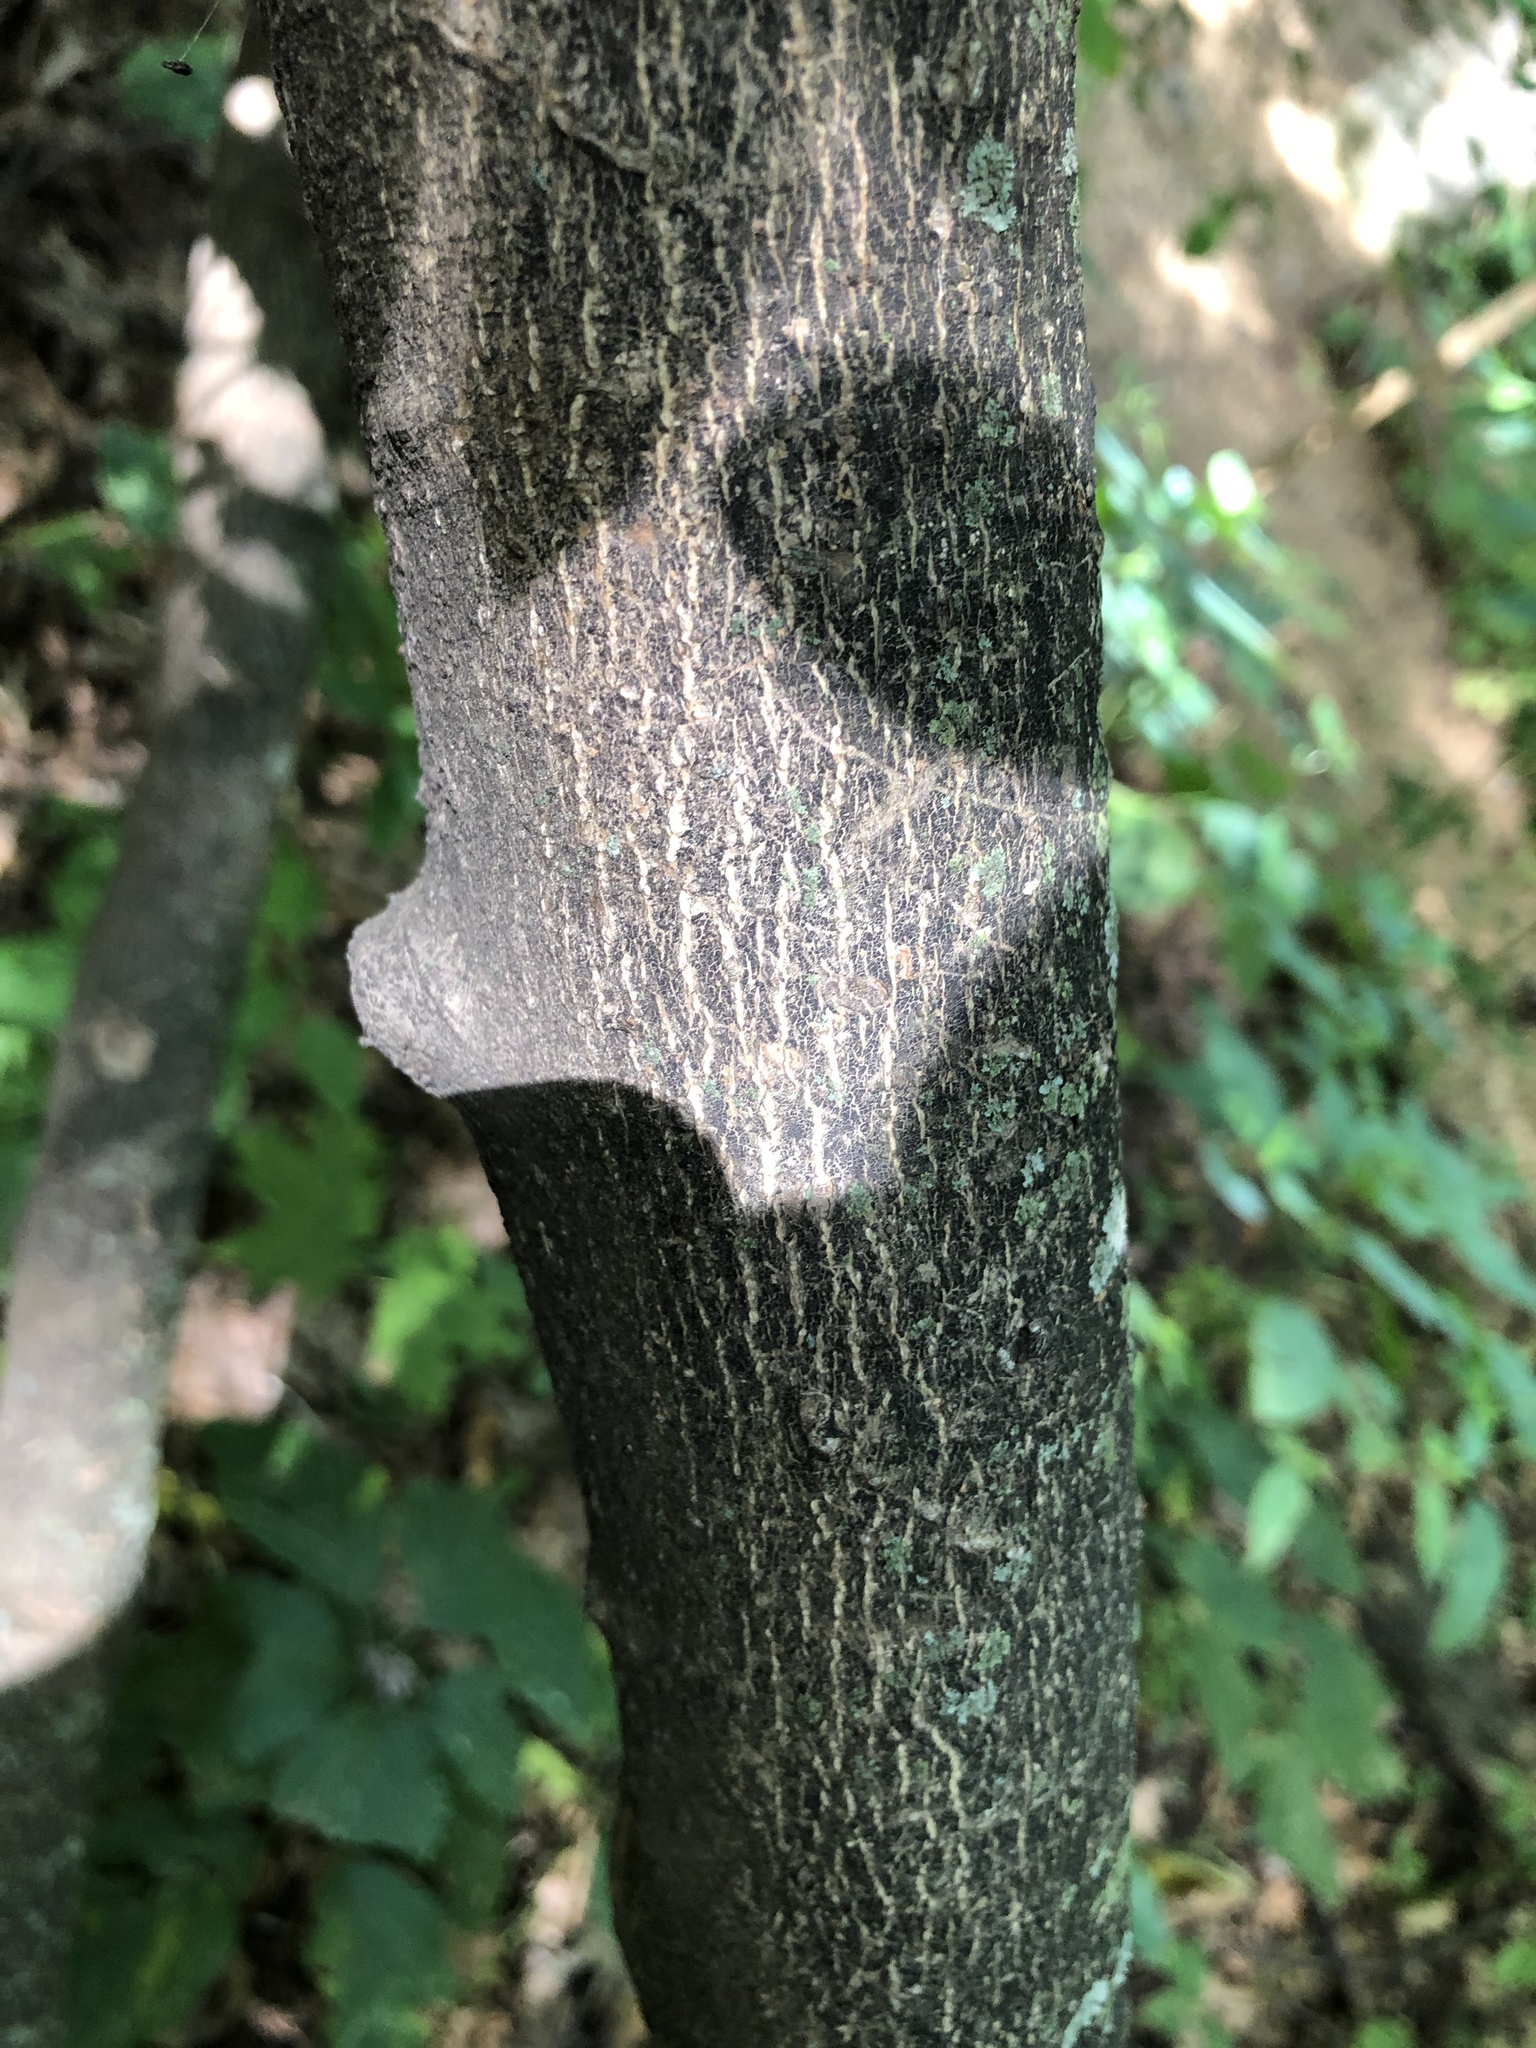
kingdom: Plantae
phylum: Tracheophyta
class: Magnoliopsida
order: Malvales
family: Thymelaeaceae
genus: Dirca
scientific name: Dirca palustris
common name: Leatherwood
